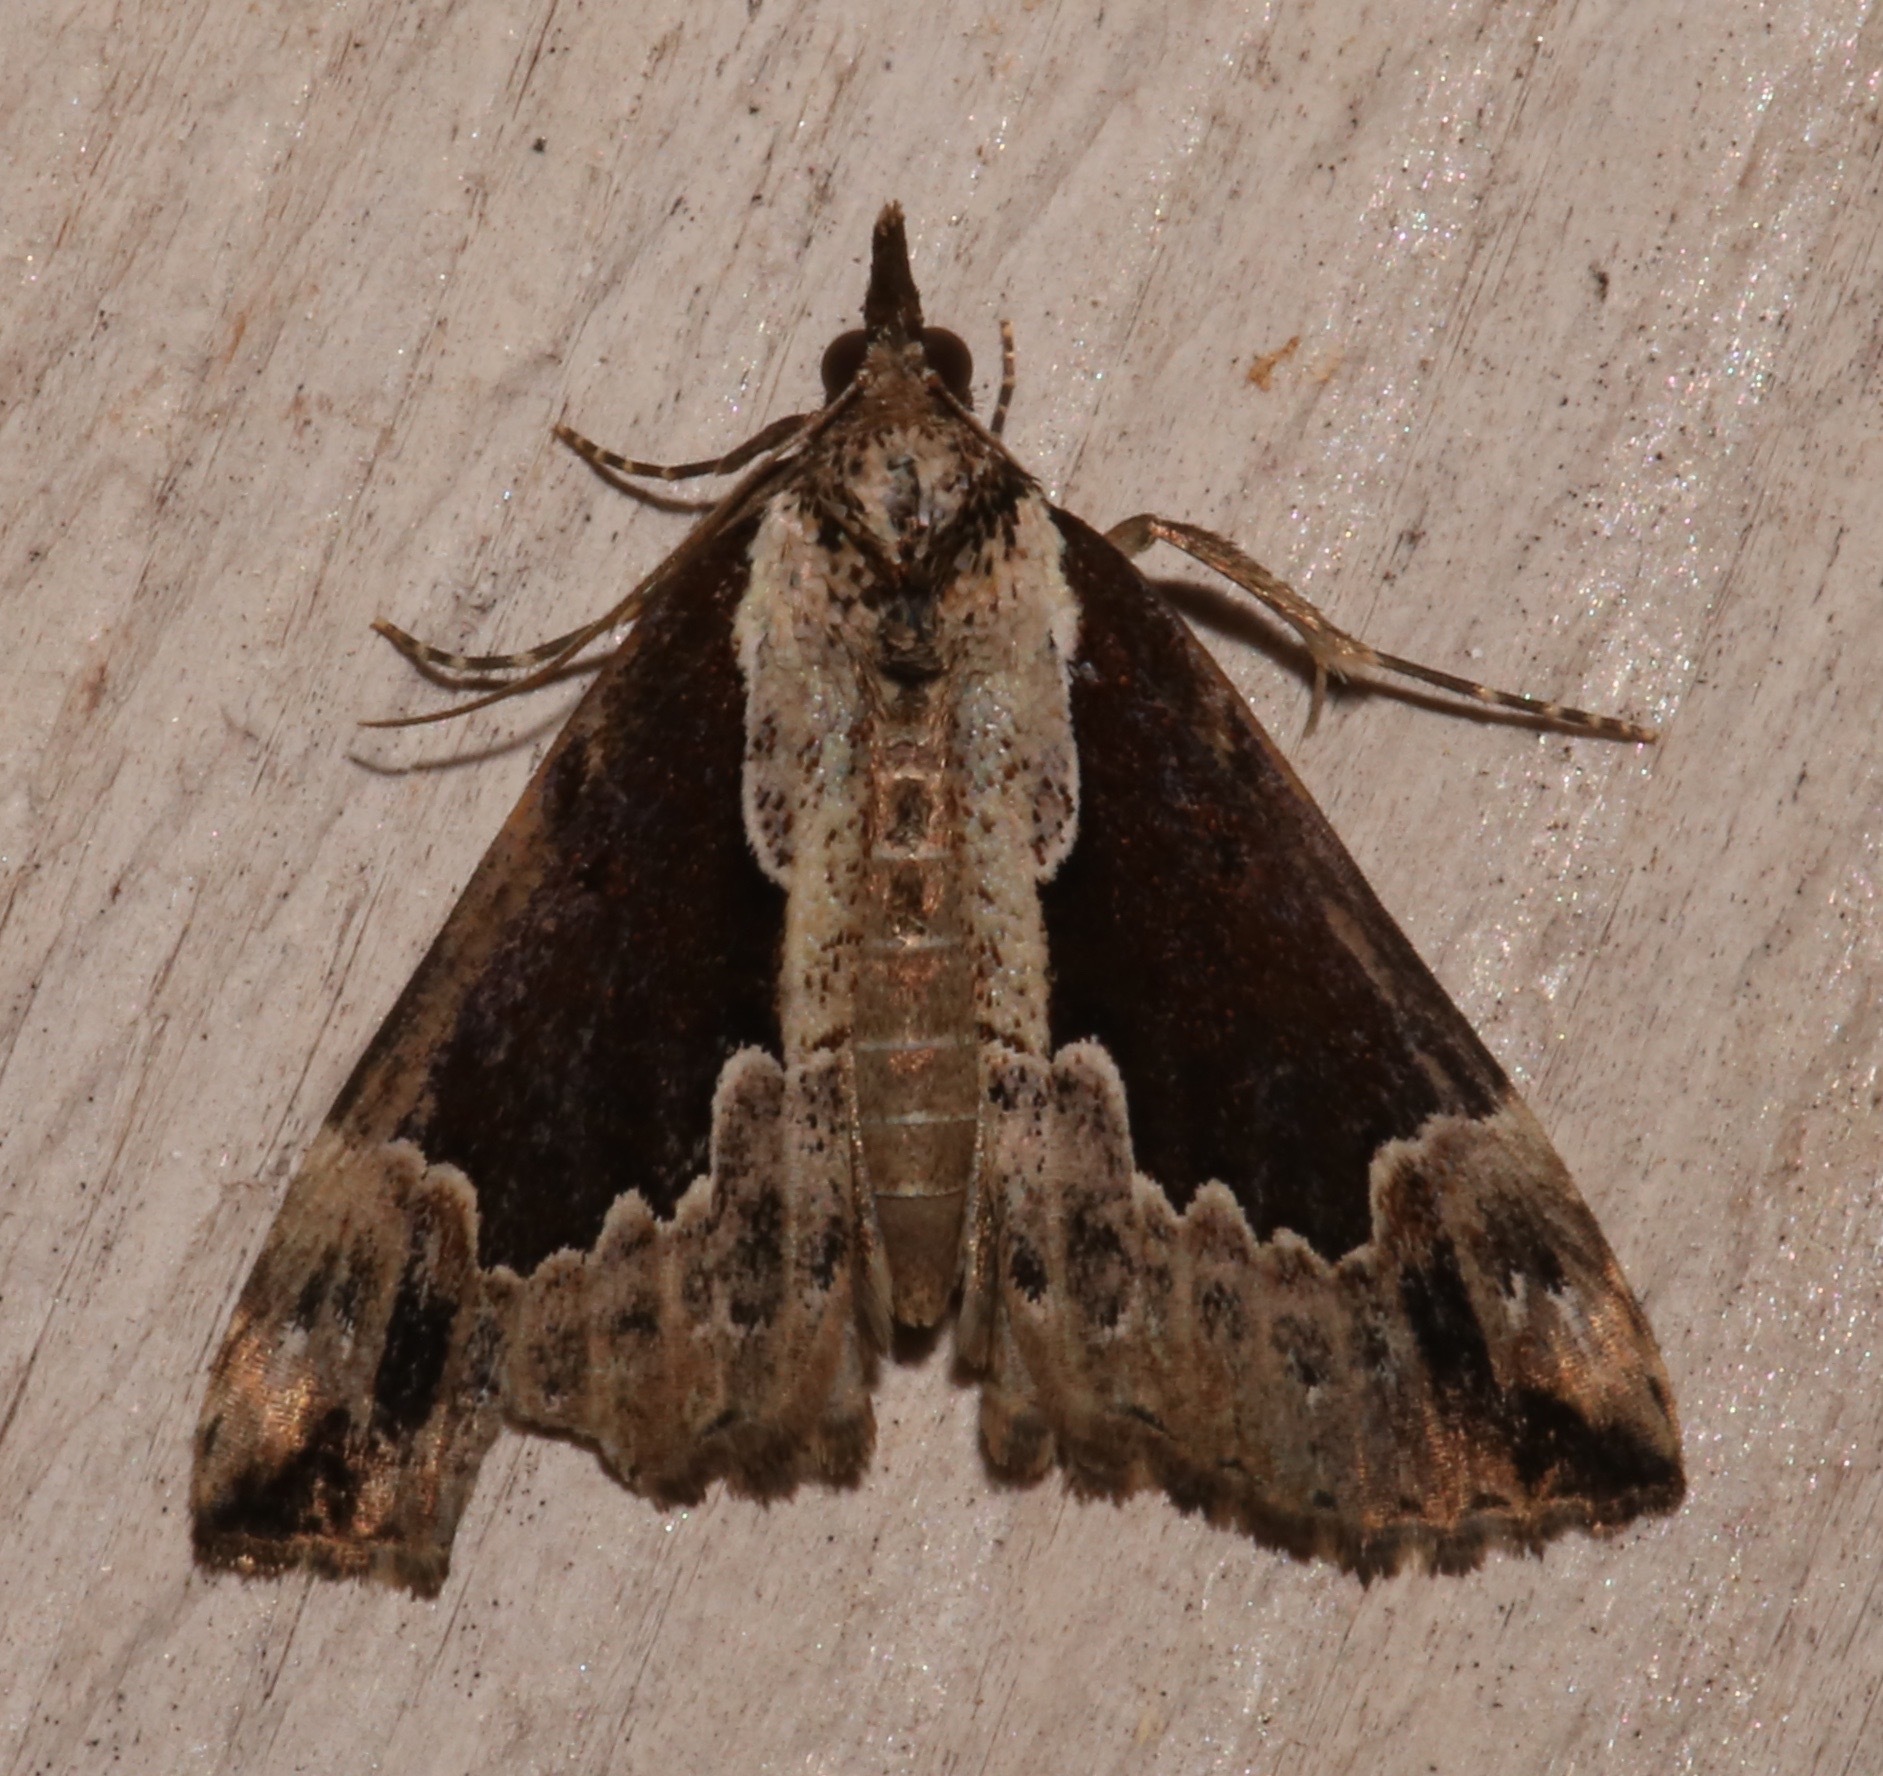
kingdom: Animalia
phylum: Arthropoda
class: Insecta
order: Lepidoptera
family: Erebidae
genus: Hypena
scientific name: Hypena baltimoralis
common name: Baltimore snout
